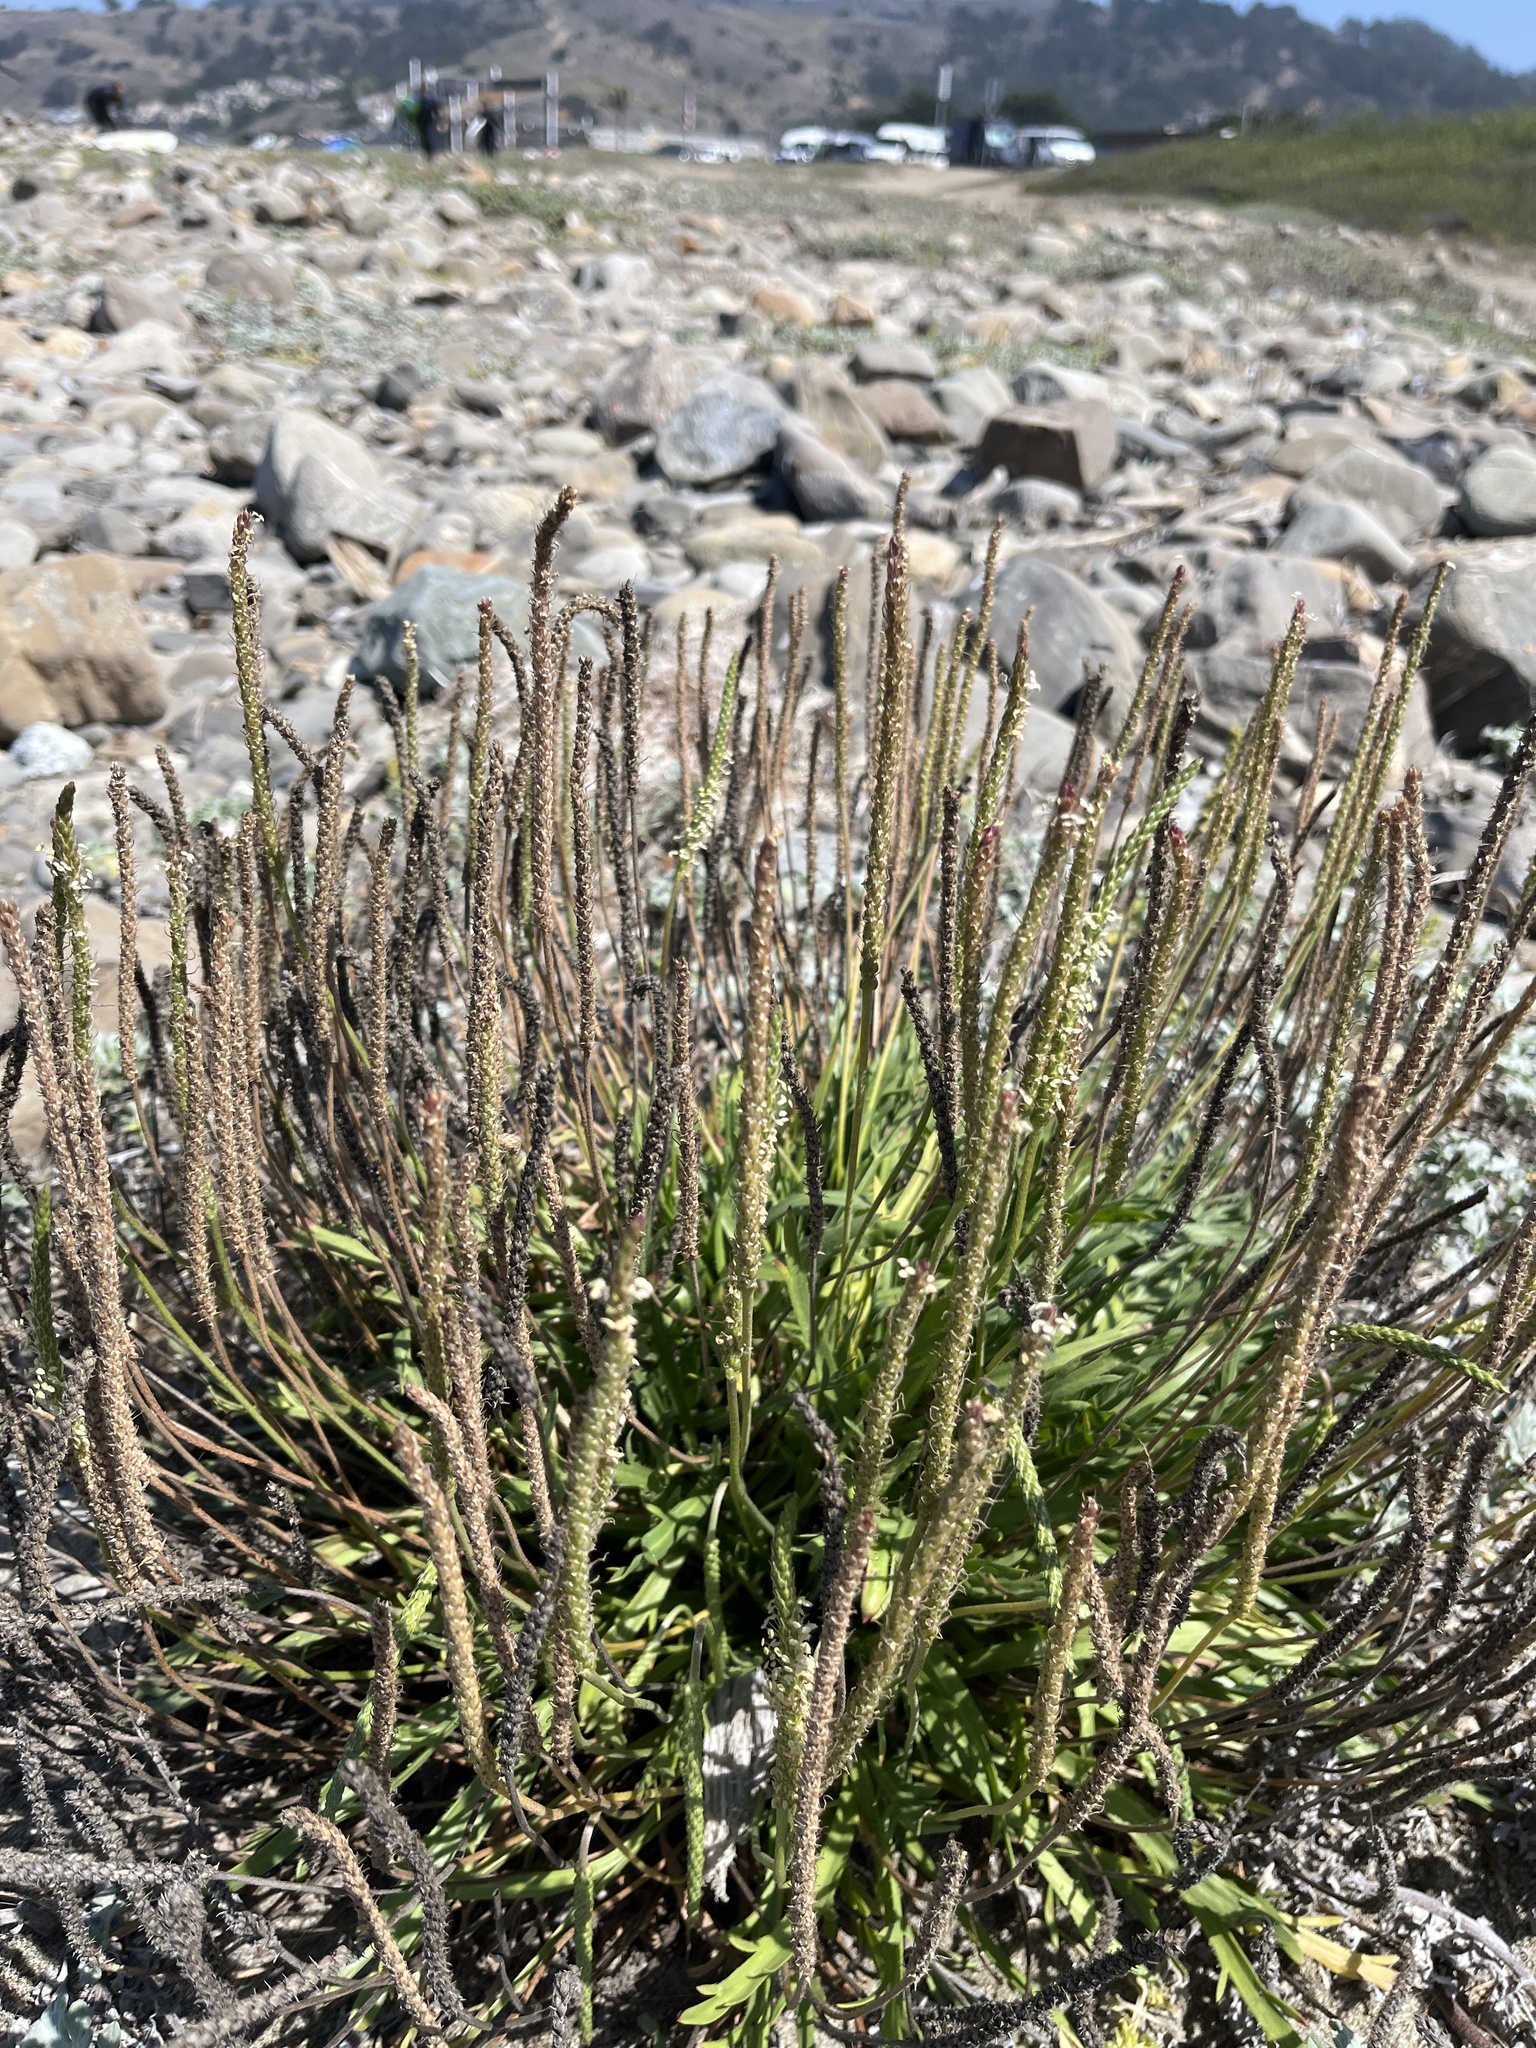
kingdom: Plantae
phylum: Tracheophyta
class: Magnoliopsida
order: Lamiales
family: Plantaginaceae
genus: Plantago
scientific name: Plantago coronopus
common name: Buck's-horn plantain
